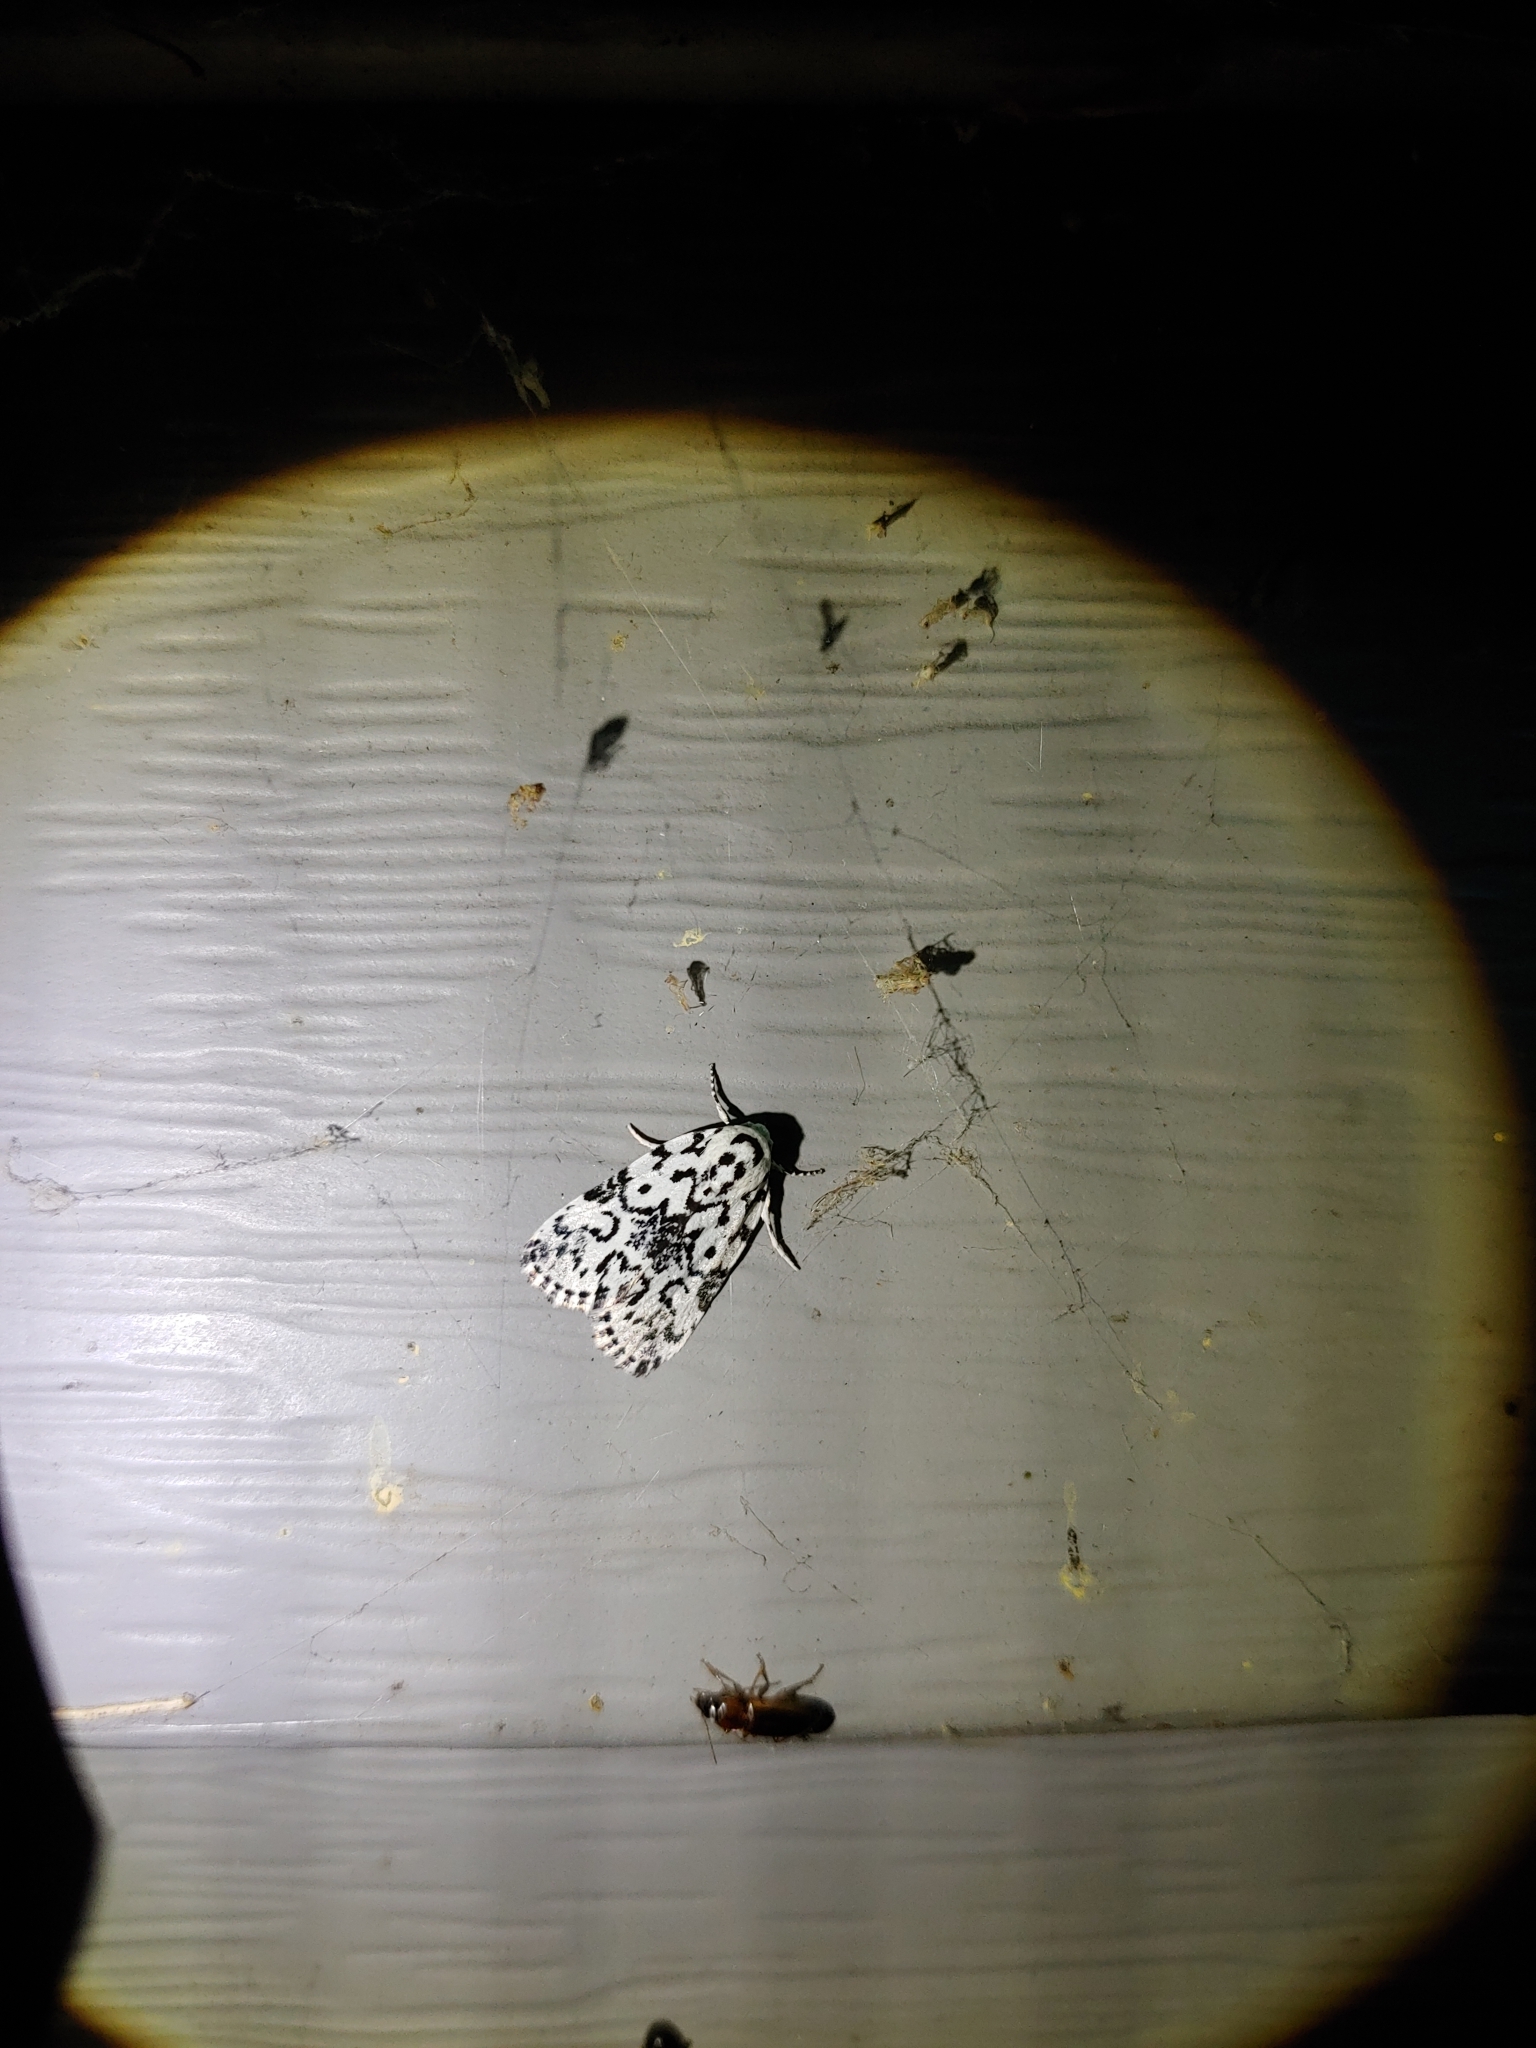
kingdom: Animalia
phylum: Arthropoda
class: Insecta
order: Lepidoptera
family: Noctuidae
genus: Polygrammate
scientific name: Polygrammate hebraeicum
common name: Hebrew moth
